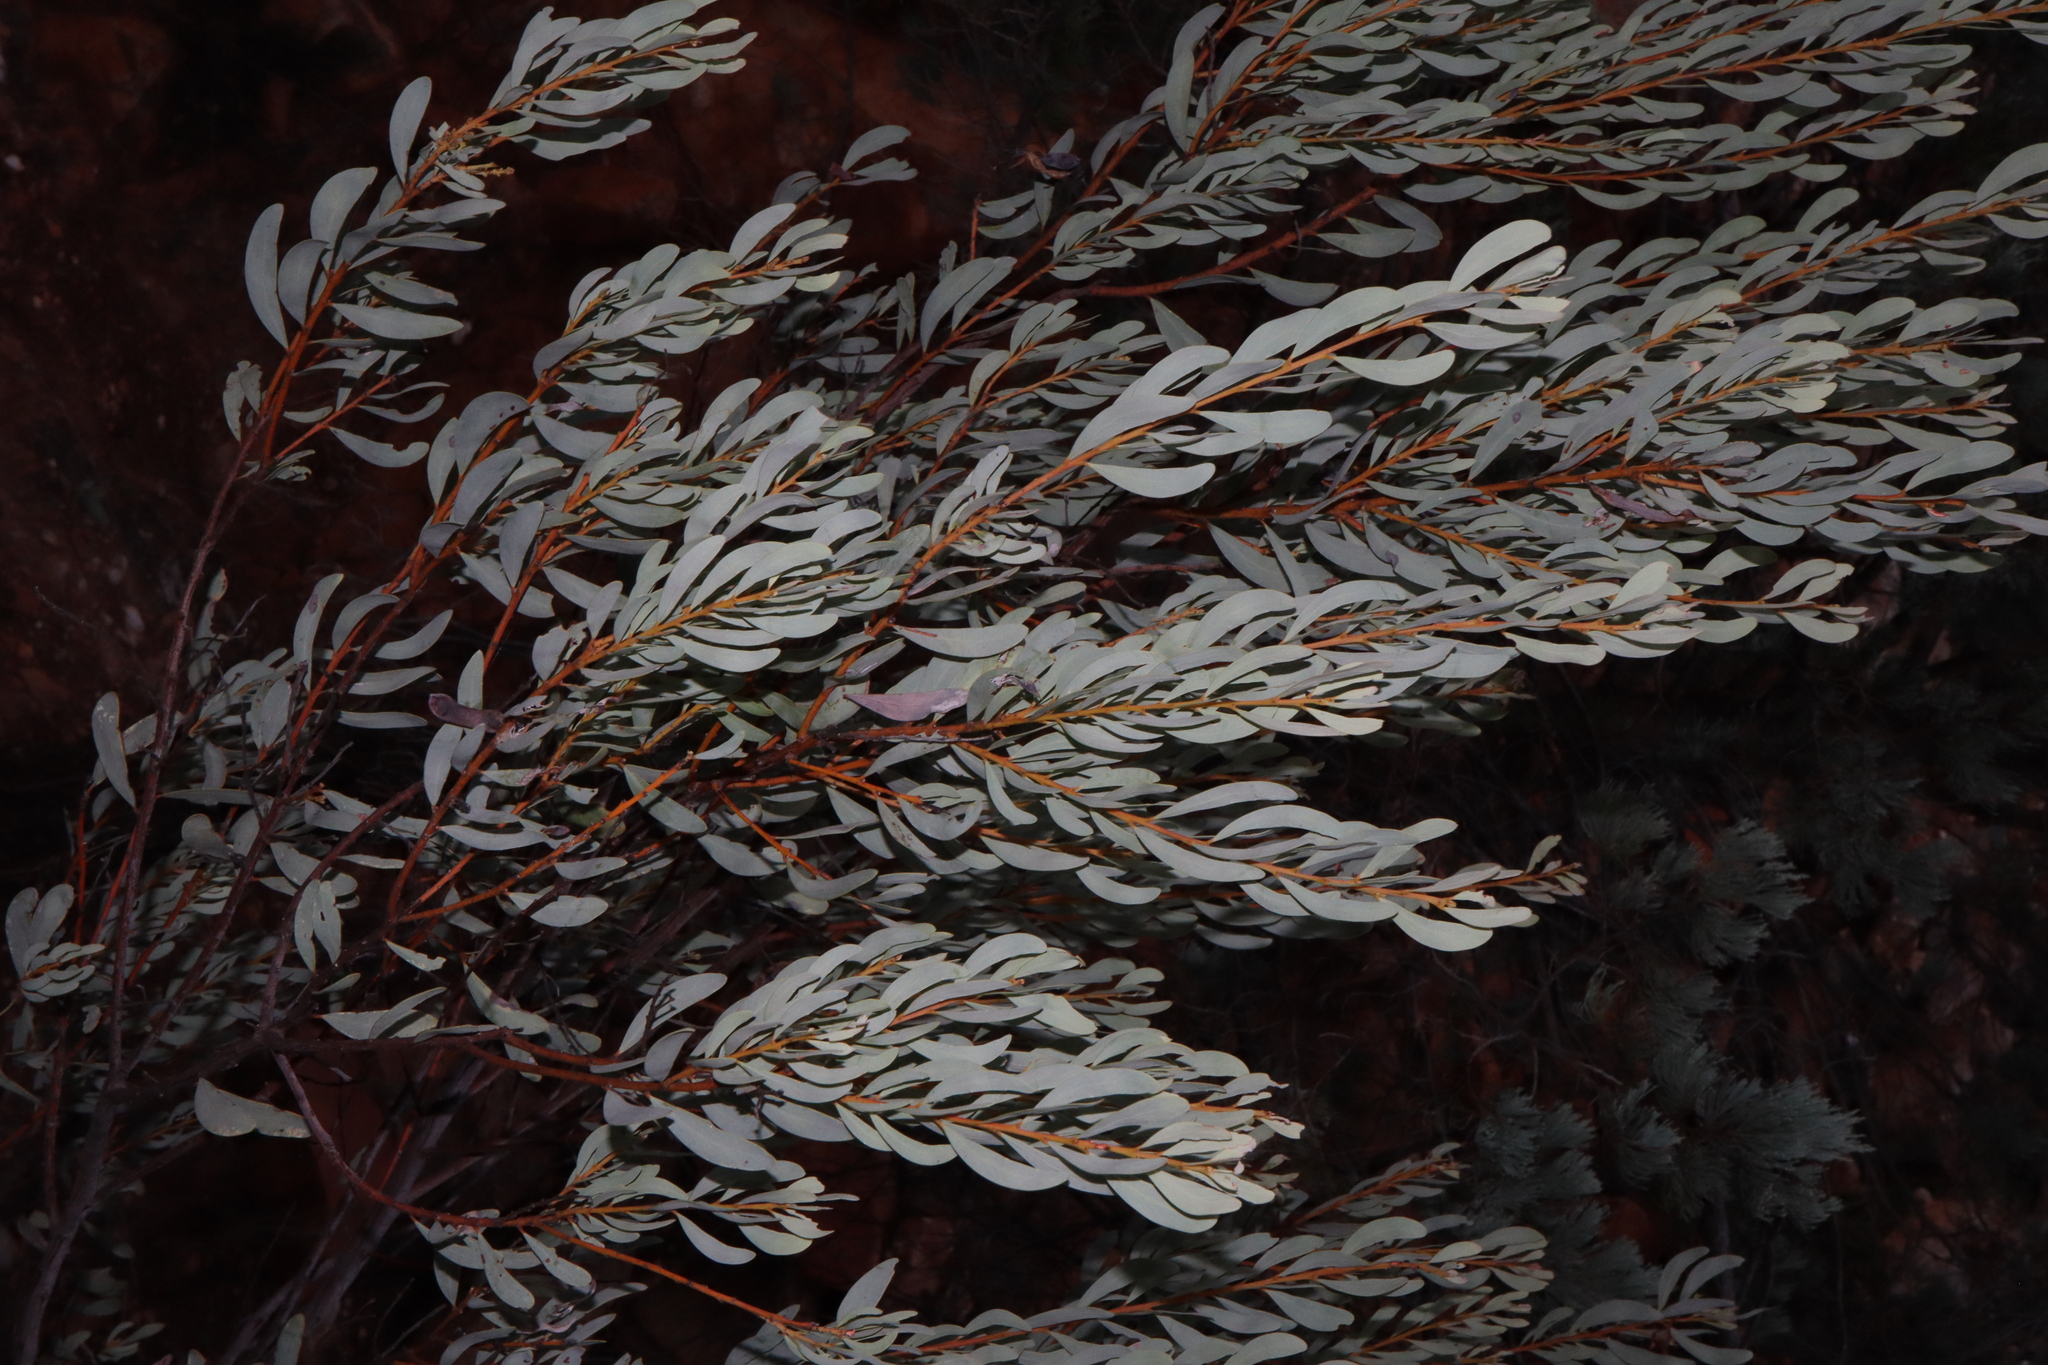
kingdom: Plantae
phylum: Tracheophyta
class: Magnoliopsida
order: Fabales
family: Fabaceae
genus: Acacia
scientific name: Acacia decora
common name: Showy wattle
